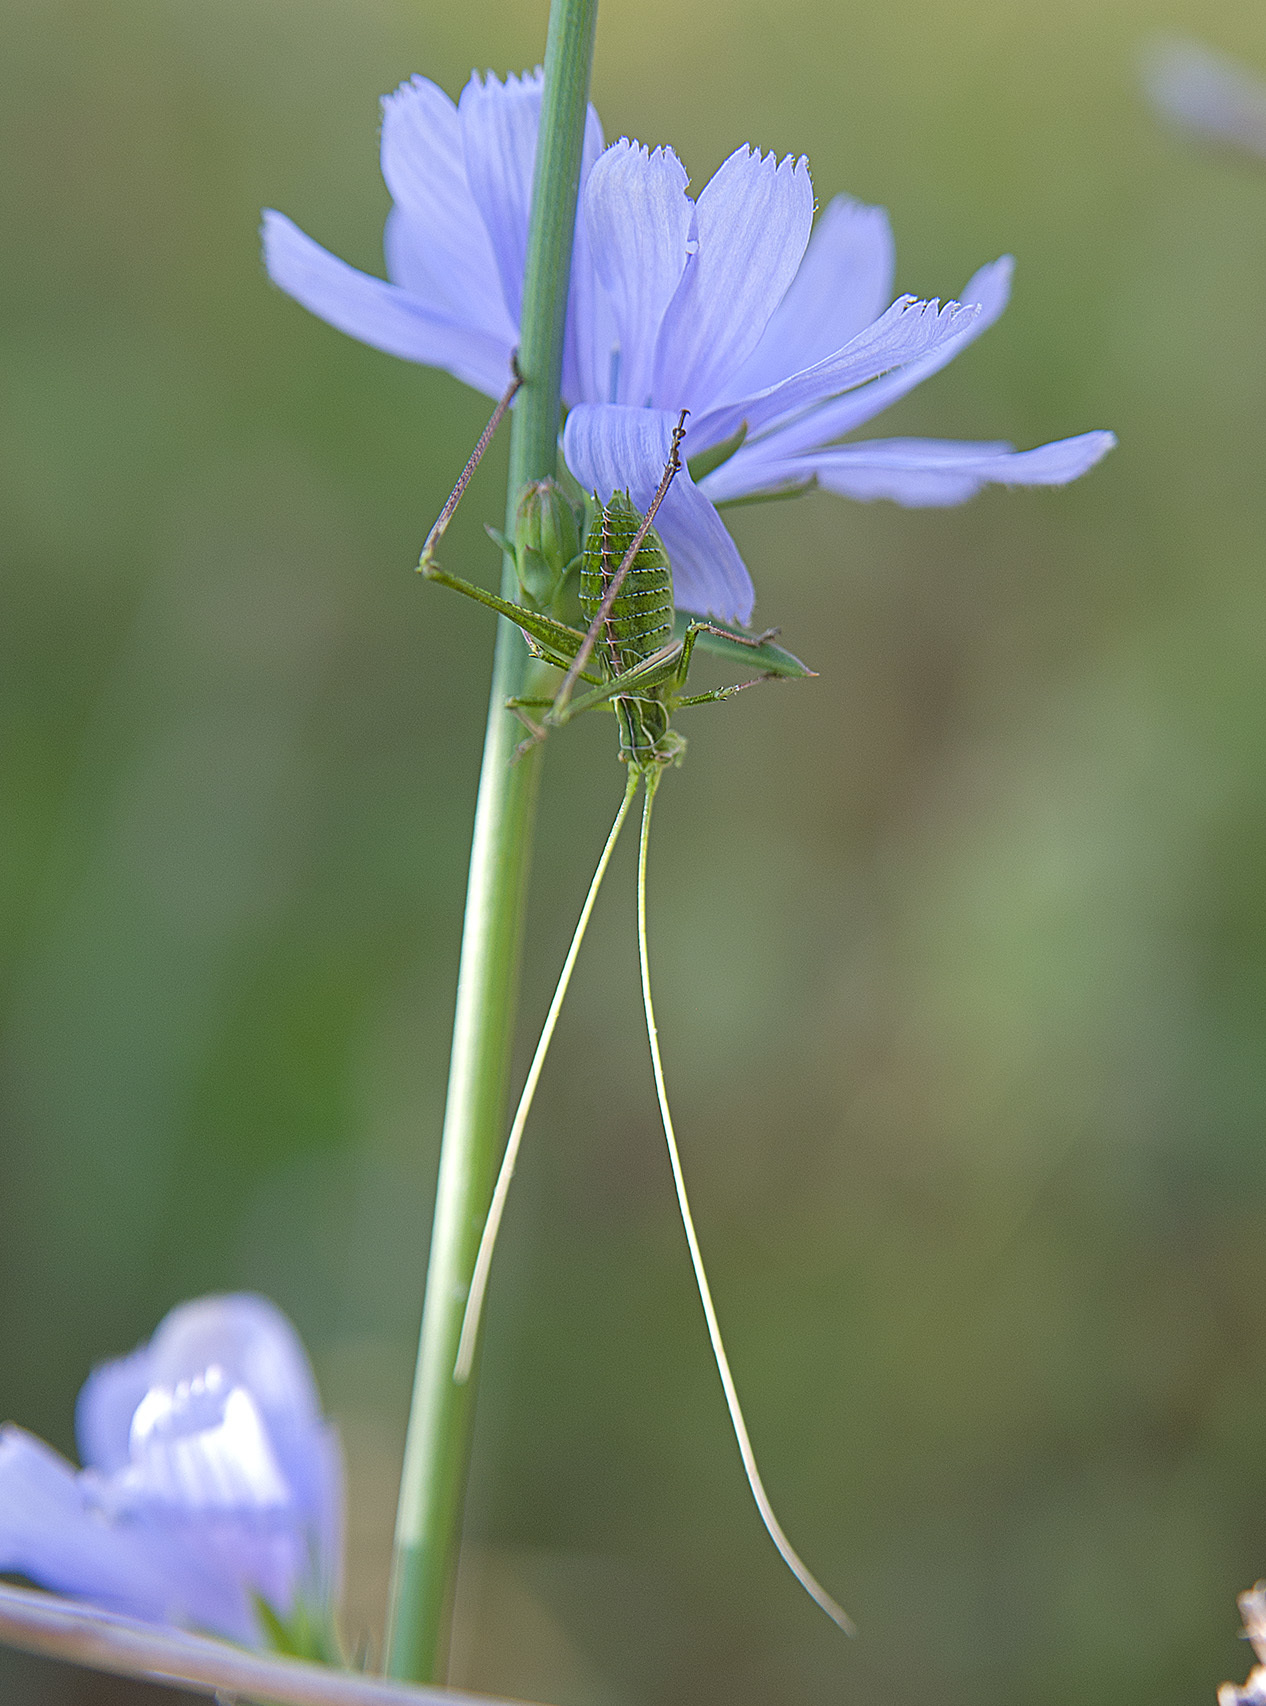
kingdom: Animalia
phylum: Arthropoda
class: Insecta
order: Orthoptera
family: Tettigoniidae
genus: Tylopsis
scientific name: Tylopsis lilifolia
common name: Lily bush-cricket
